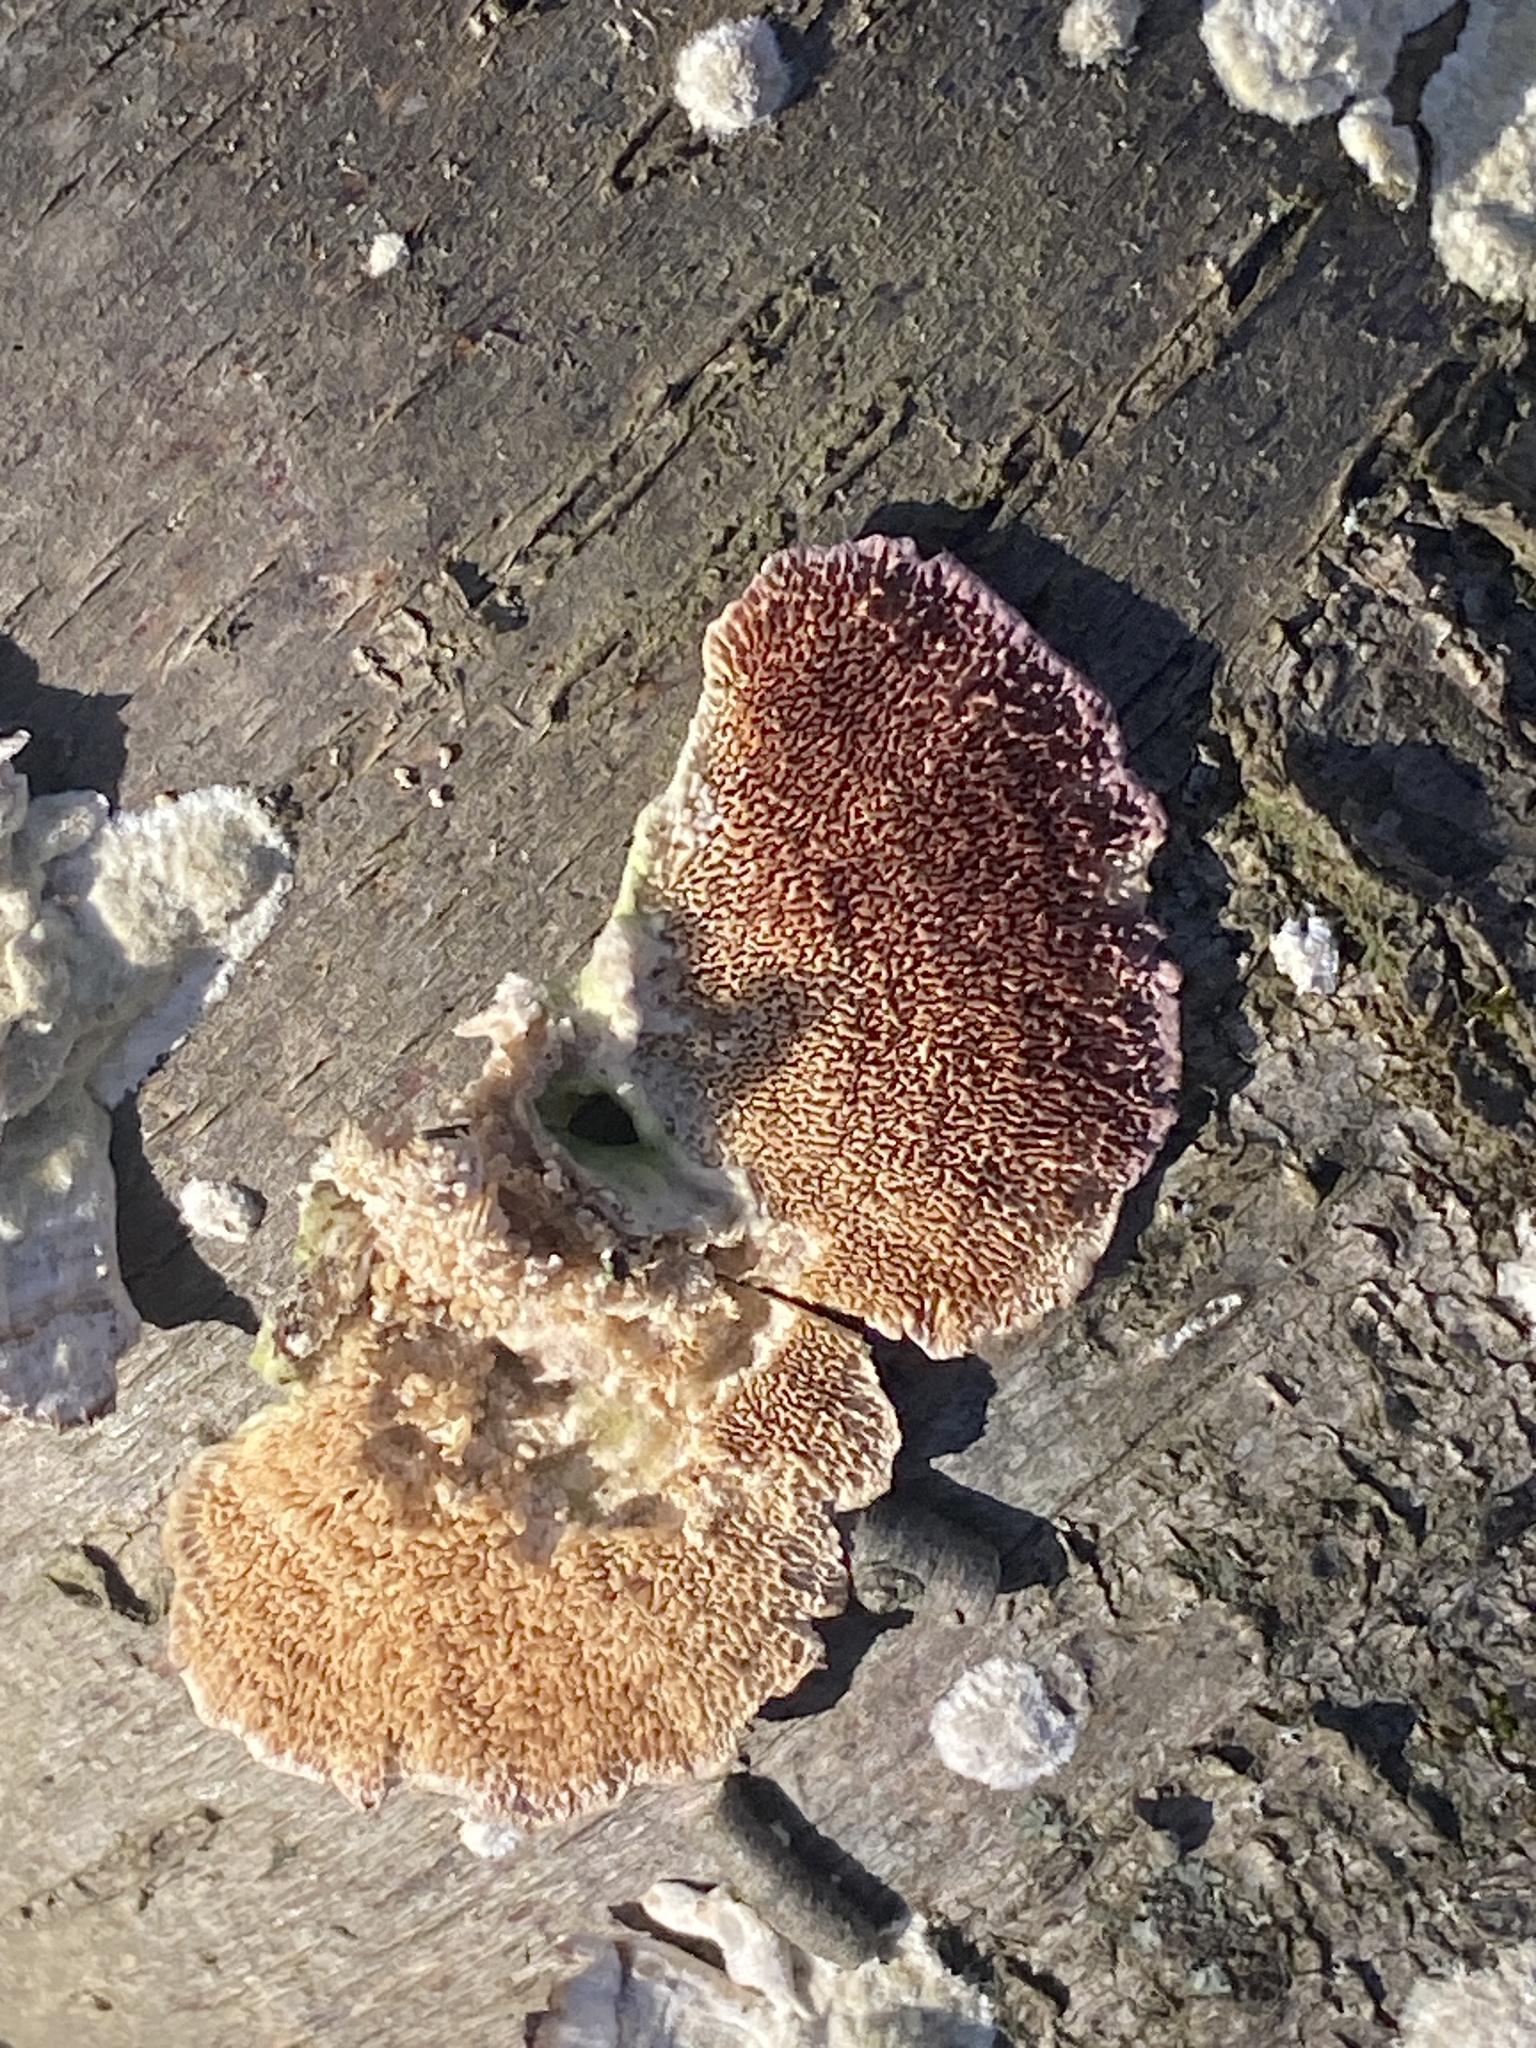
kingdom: Fungi
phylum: Basidiomycota
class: Agaricomycetes
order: Hymenochaetales
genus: Trichaptum
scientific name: Trichaptum biforme
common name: Violet-toothed polypore
